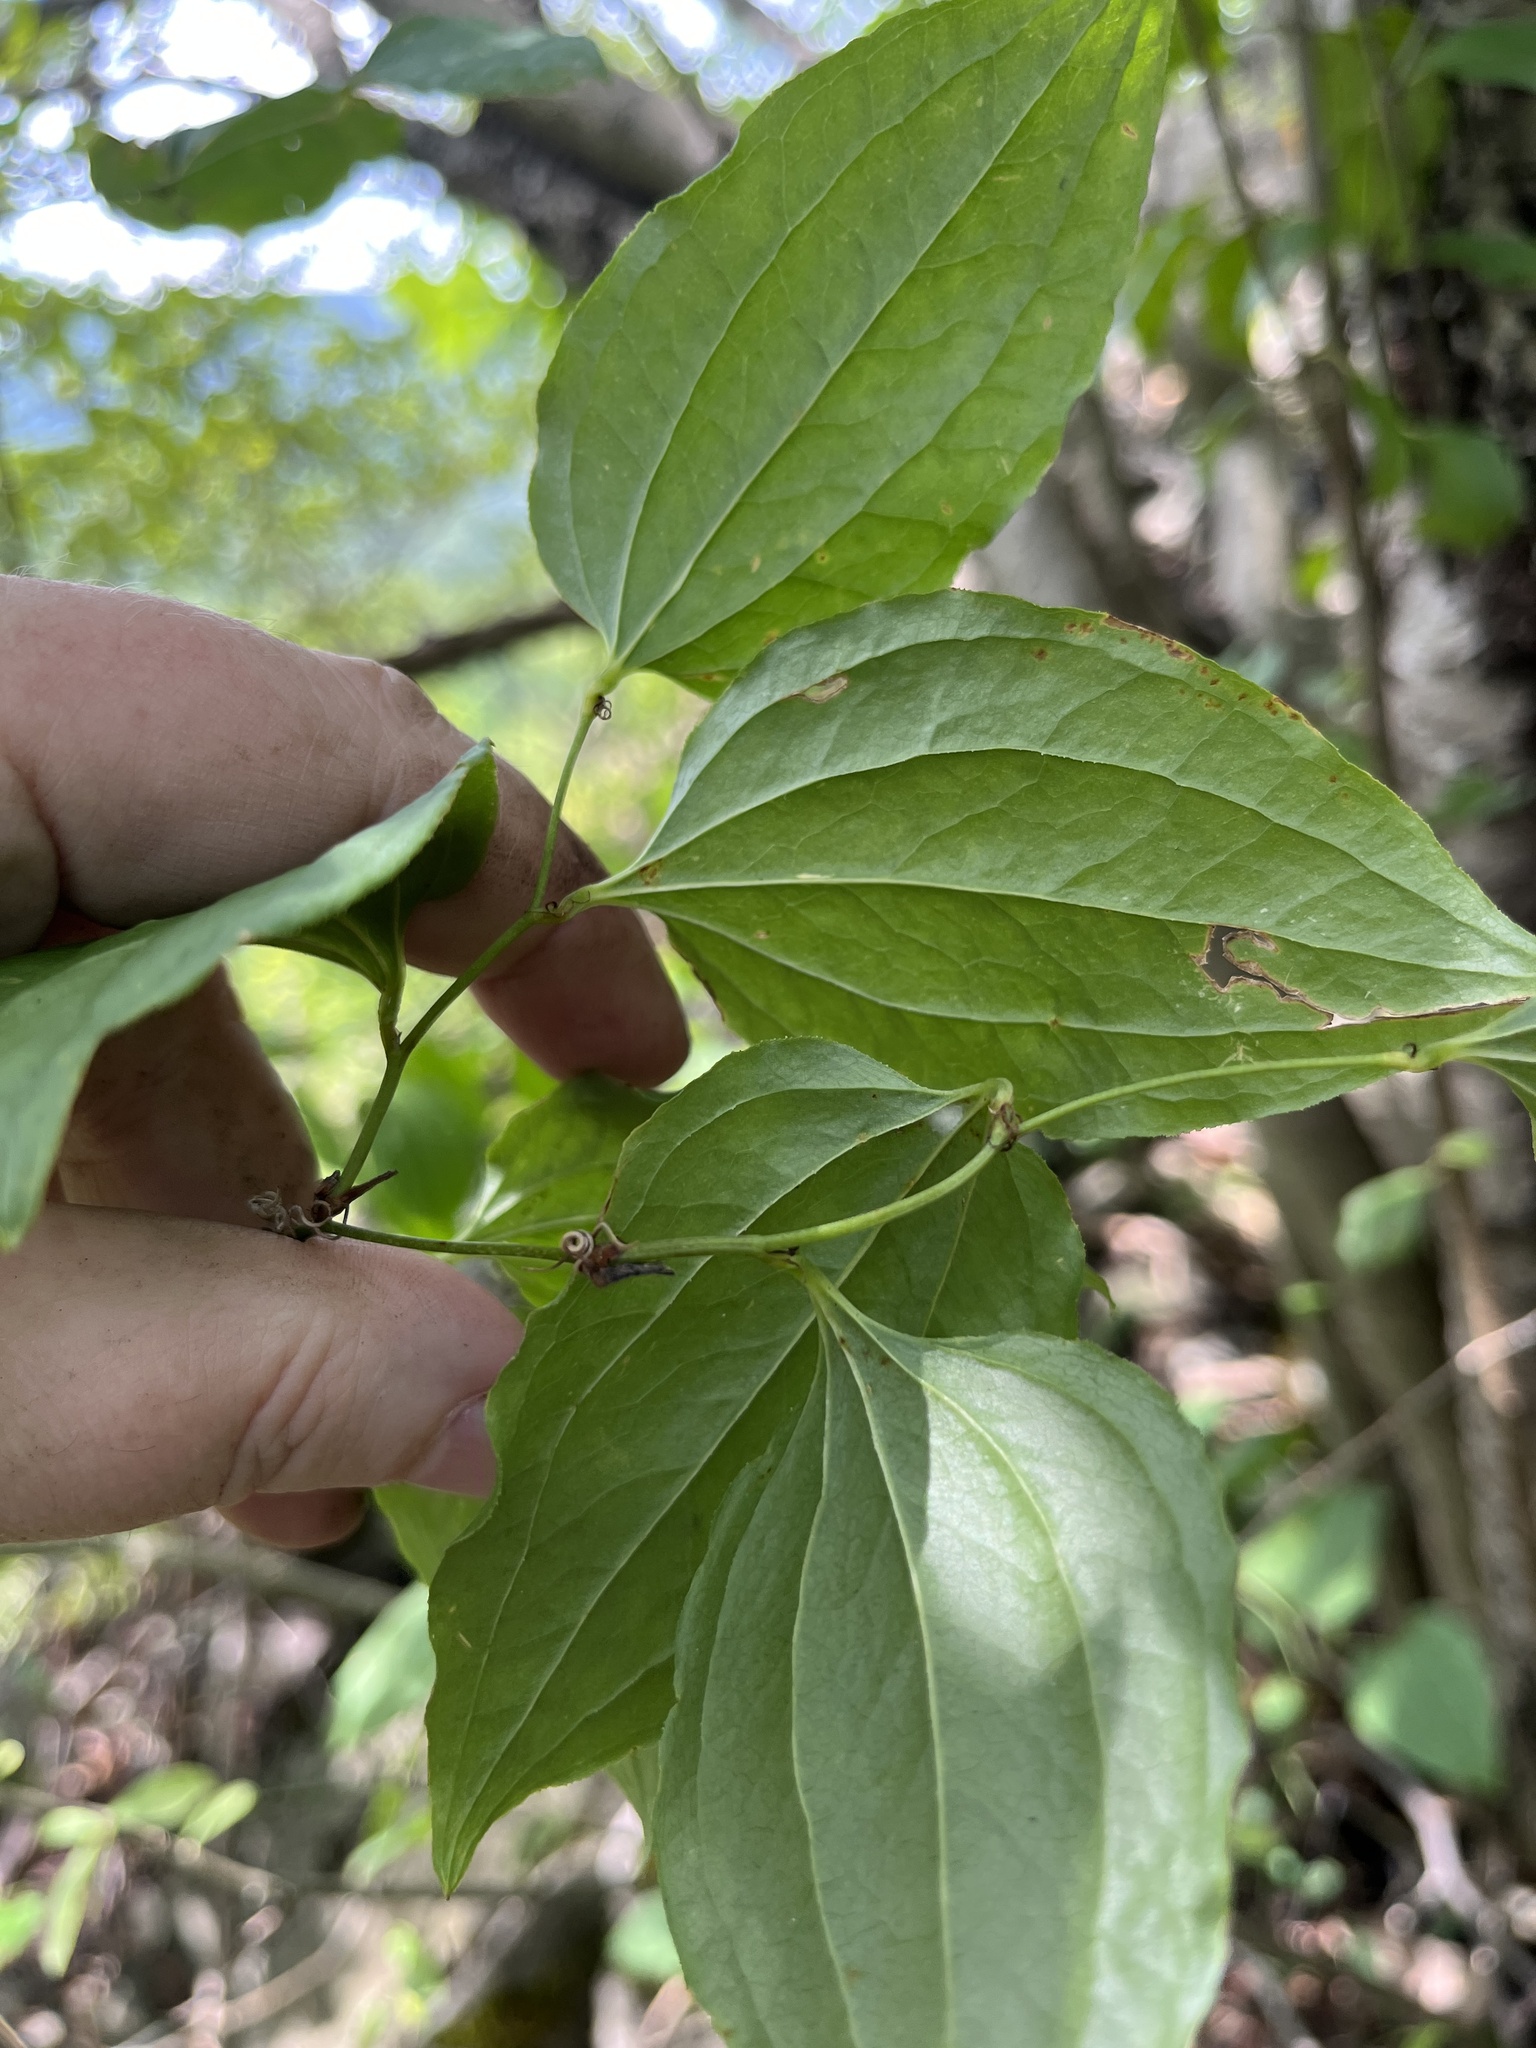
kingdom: Plantae
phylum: Tracheophyta
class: Liliopsida
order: Liliales
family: Smilacaceae
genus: Smilax
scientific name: Smilax tamnoides
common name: Hellfetter
